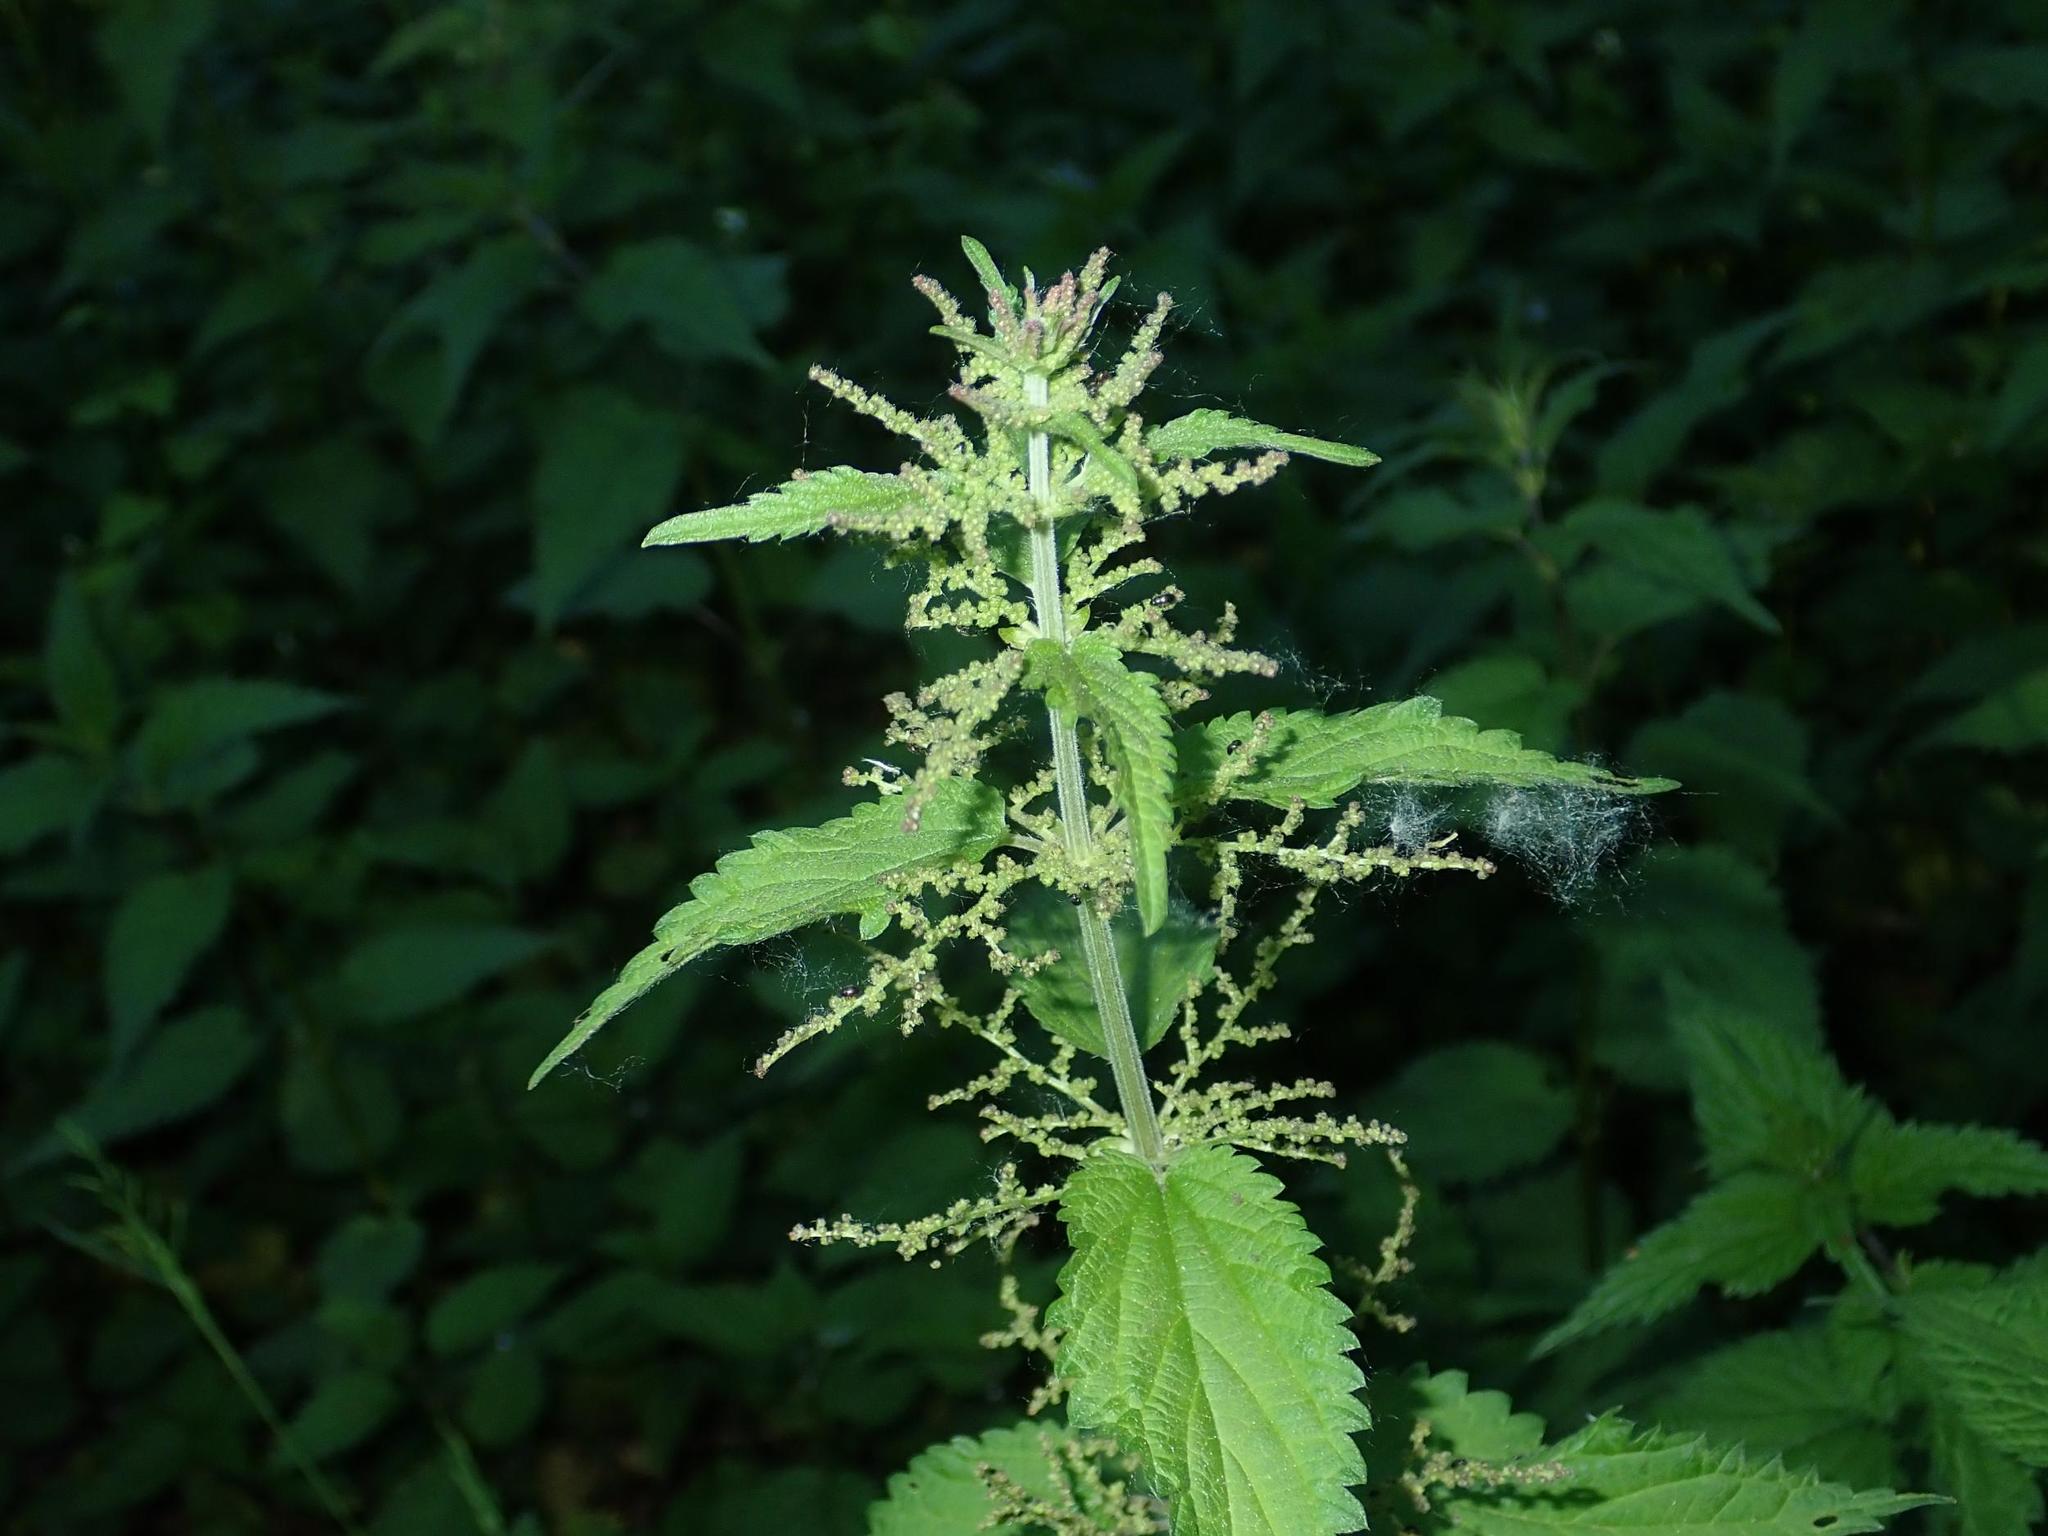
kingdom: Plantae
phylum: Tracheophyta
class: Magnoliopsida
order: Rosales
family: Urticaceae
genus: Urtica
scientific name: Urtica dioica
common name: Common nettle
